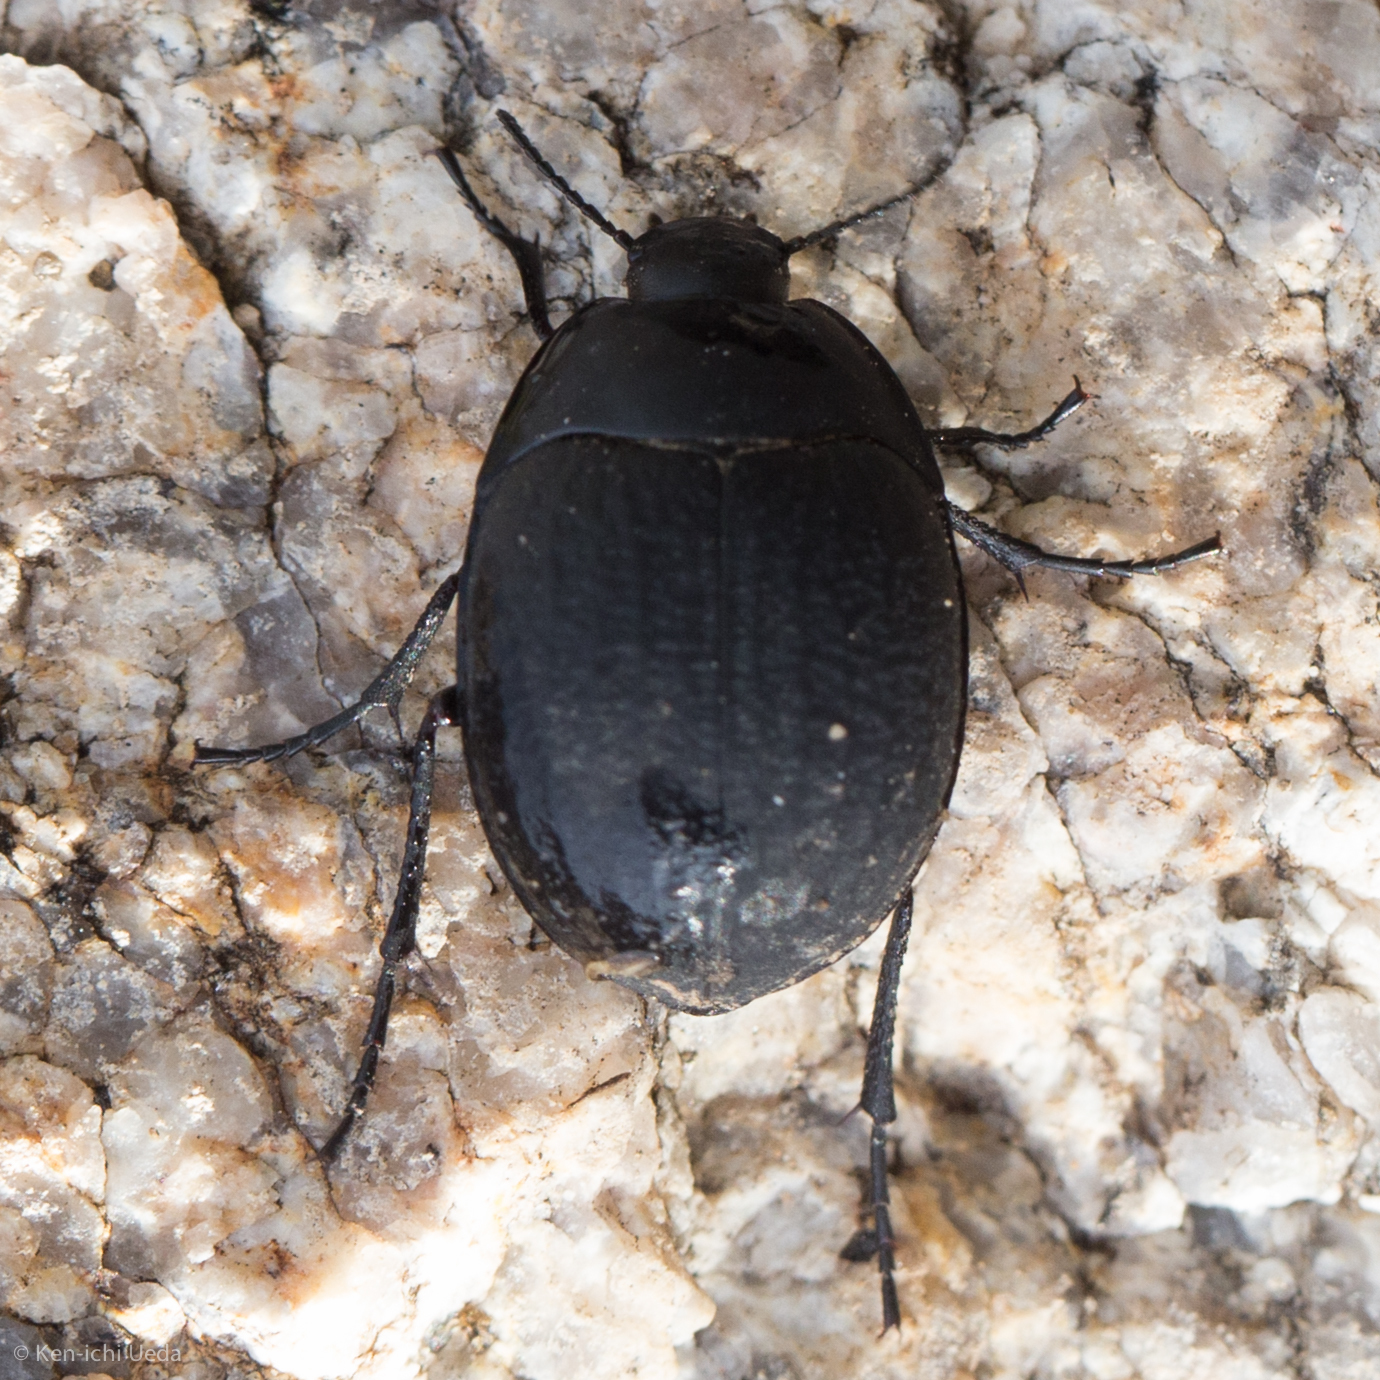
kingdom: Animalia
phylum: Arthropoda
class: Insecta
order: Coleoptera
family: Tenebrionidae
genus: Eusattus
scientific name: Eusattus reticulatus
